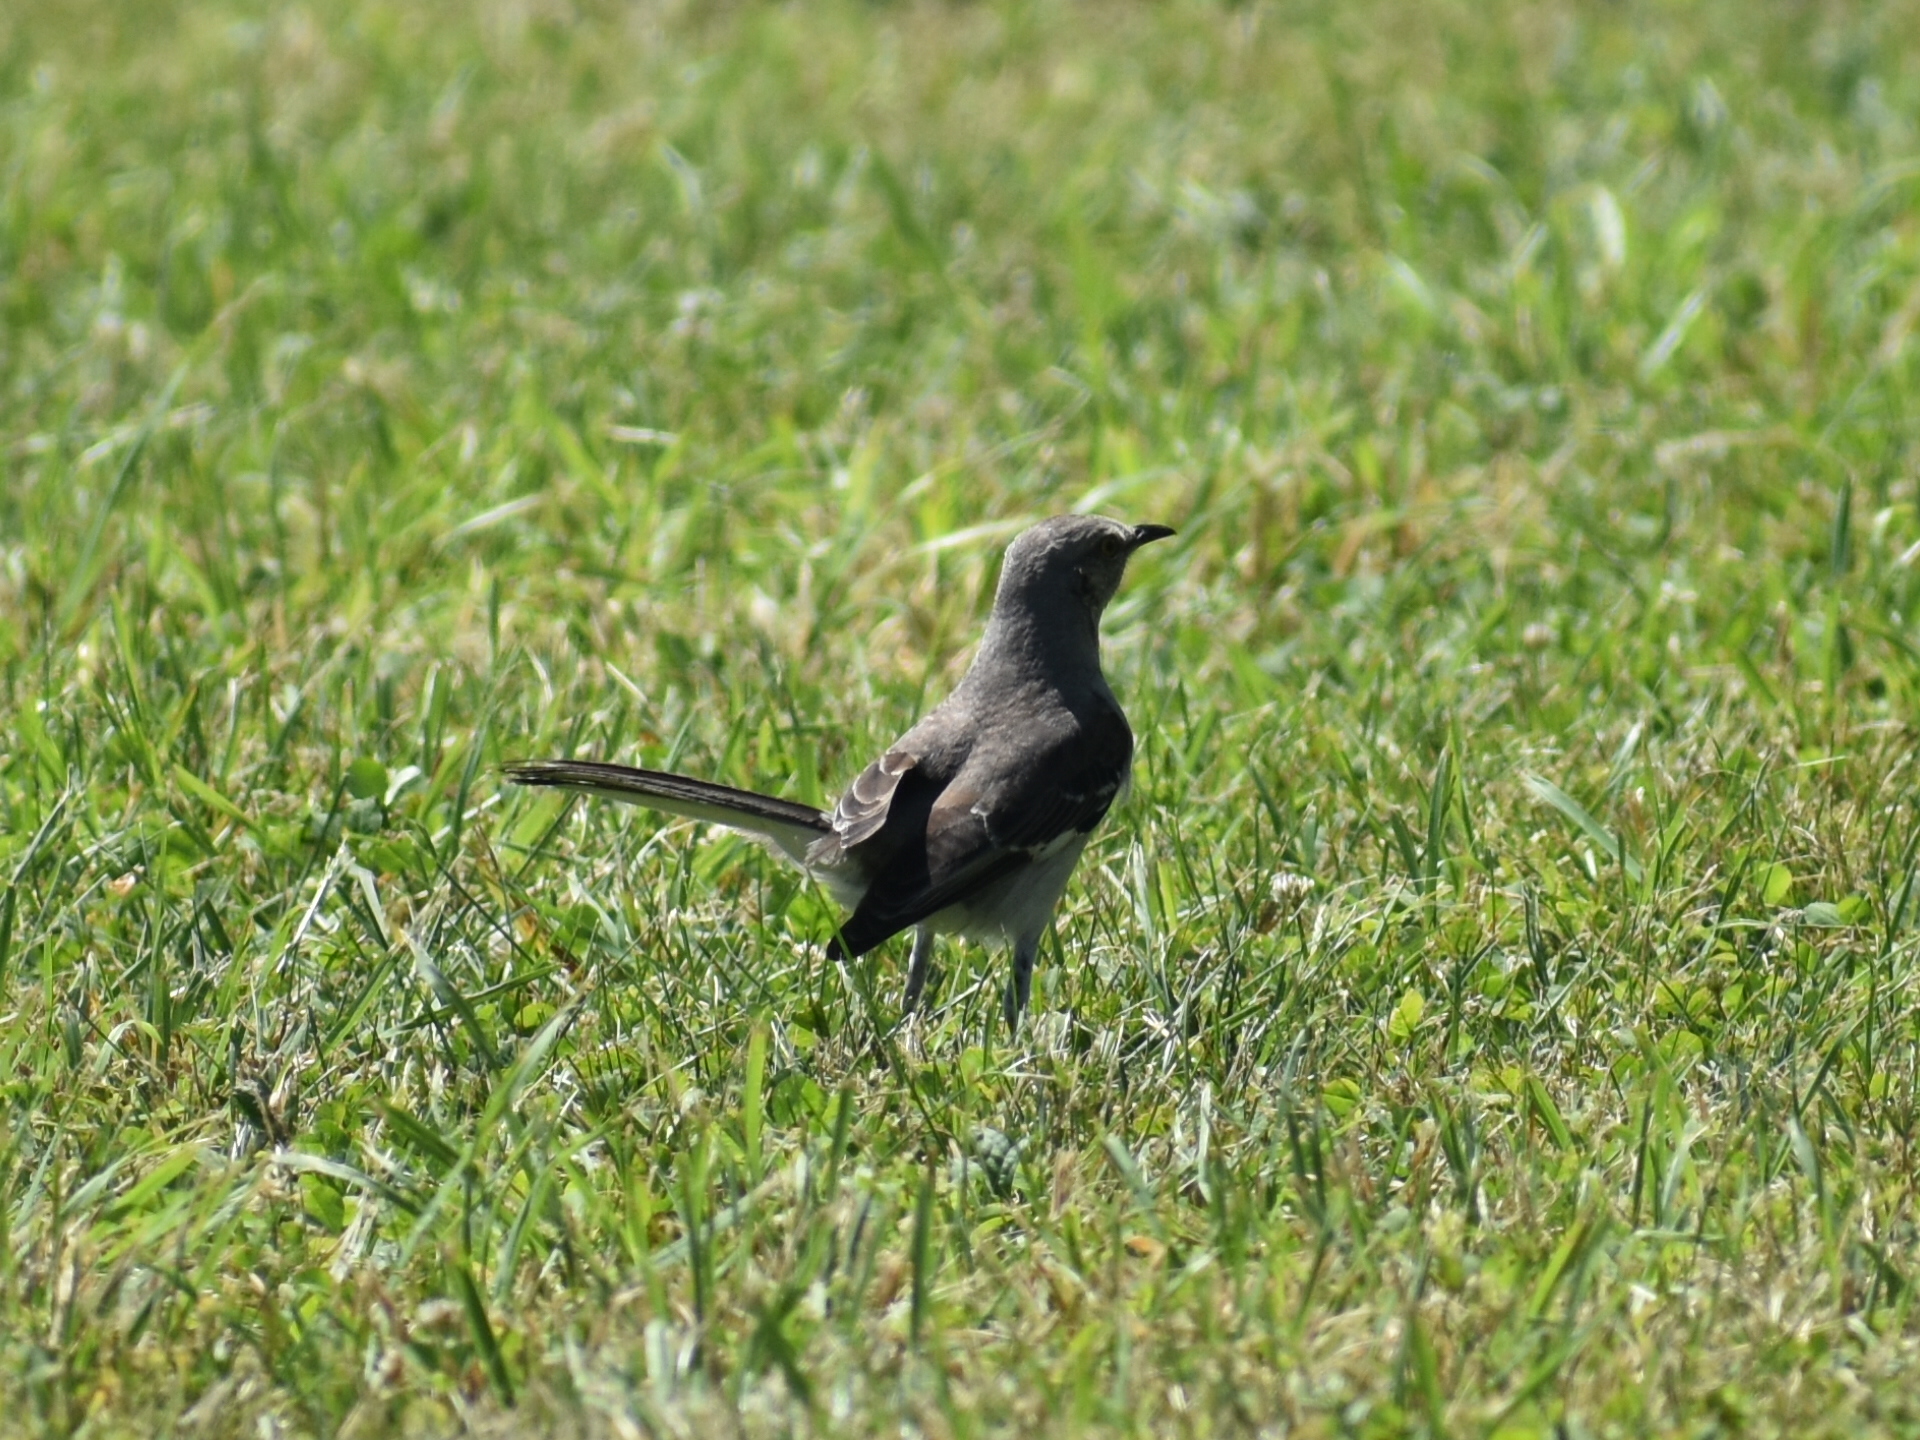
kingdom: Animalia
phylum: Chordata
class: Aves
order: Passeriformes
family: Mimidae
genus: Mimus
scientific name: Mimus polyglottos
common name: Northern mockingbird
